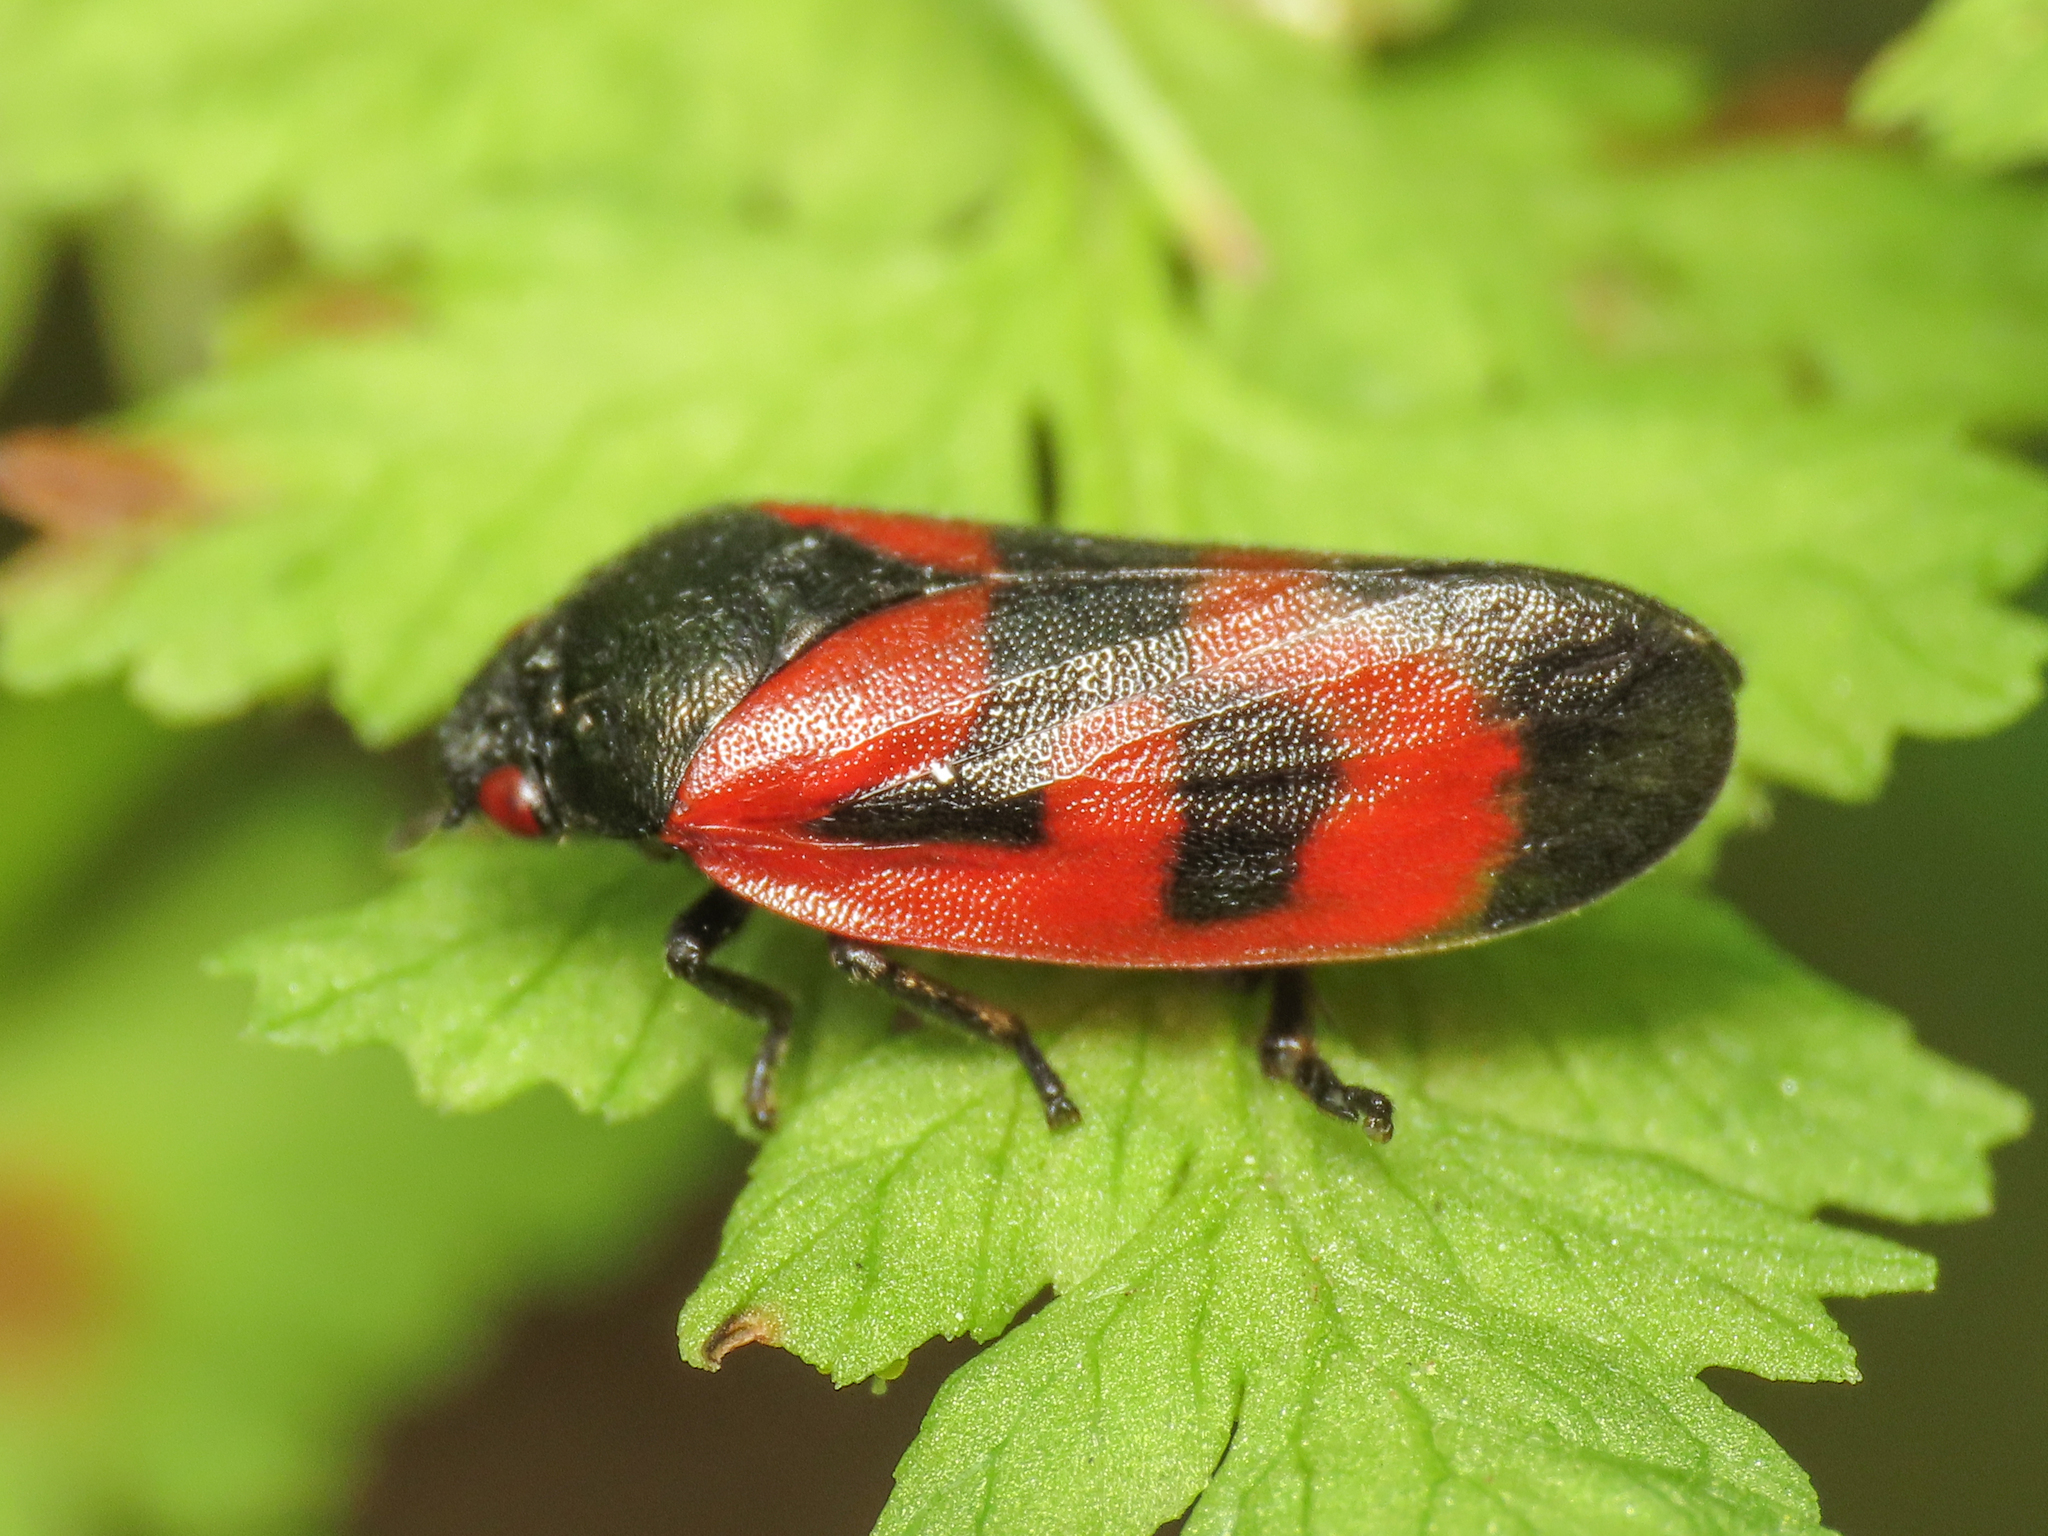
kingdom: Animalia
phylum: Arthropoda
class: Insecta
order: Hemiptera
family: Cercopidae
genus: Haematoloma
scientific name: Haematoloma dorsata
